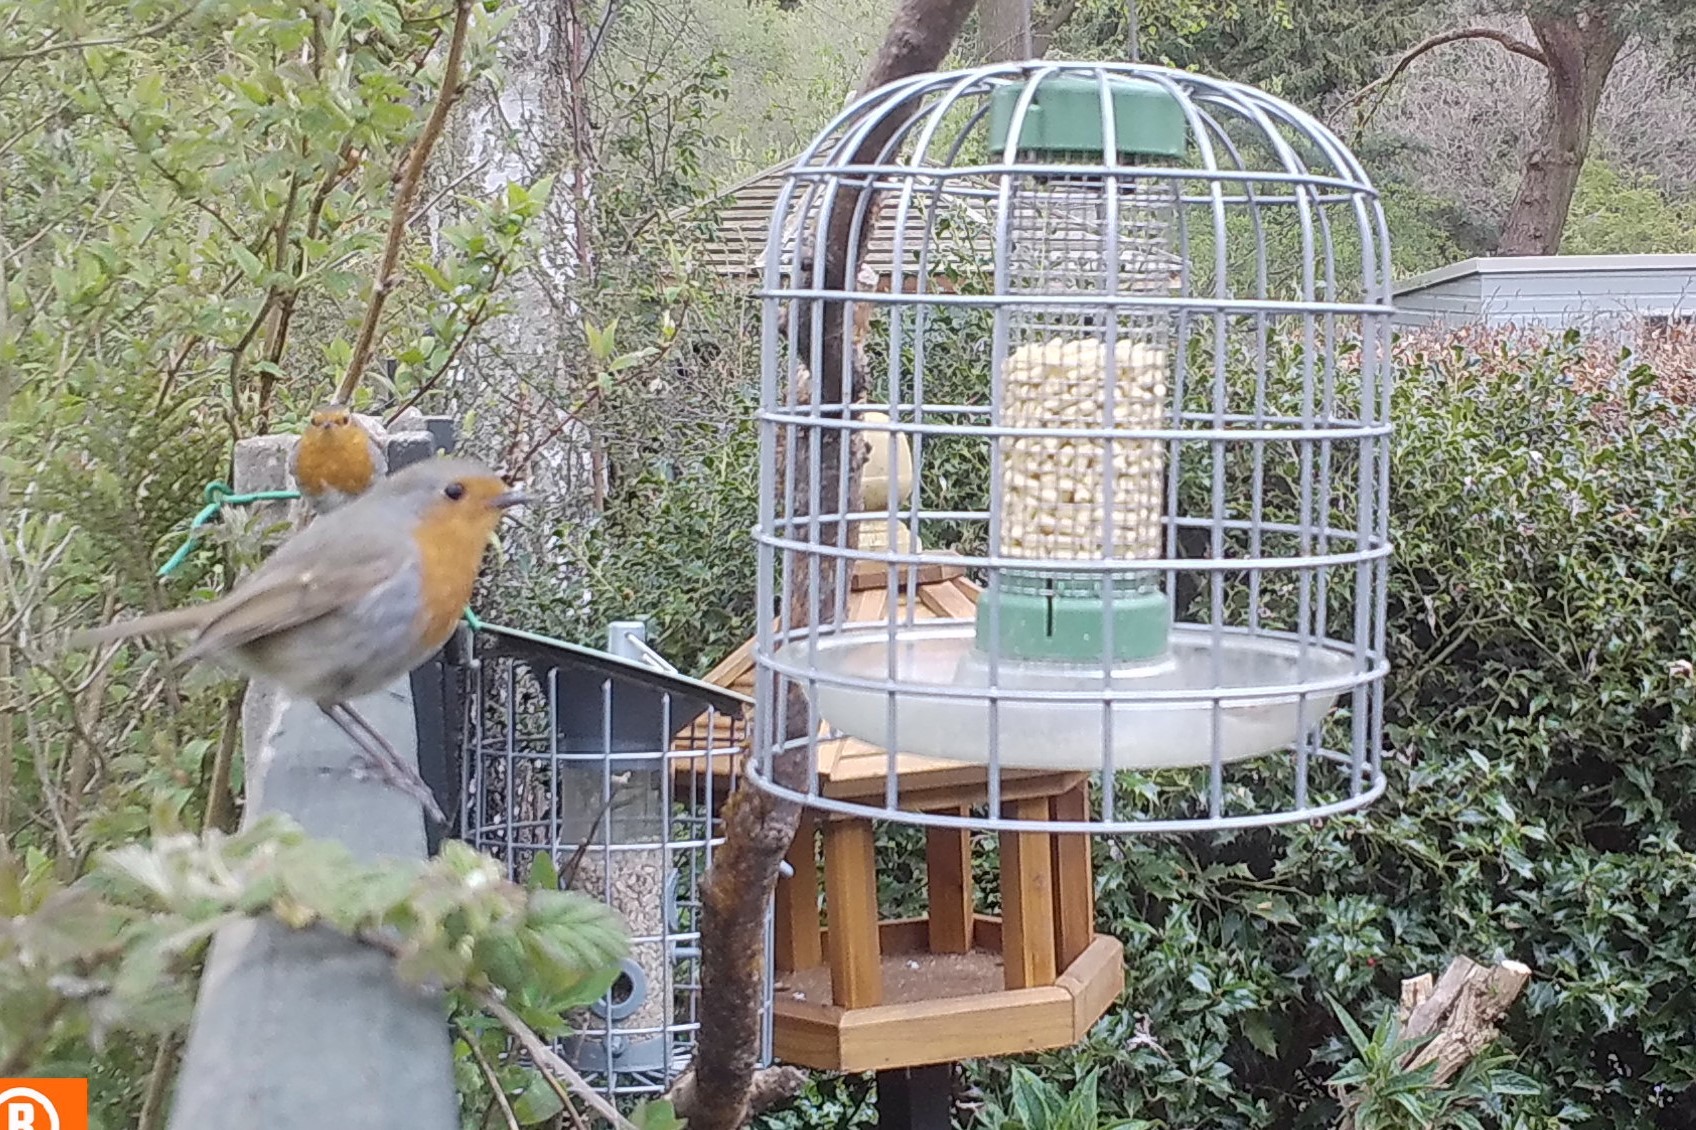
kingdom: Animalia
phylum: Chordata
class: Aves
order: Passeriformes
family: Muscicapidae
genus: Erithacus
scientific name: Erithacus rubecula
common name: European robin
